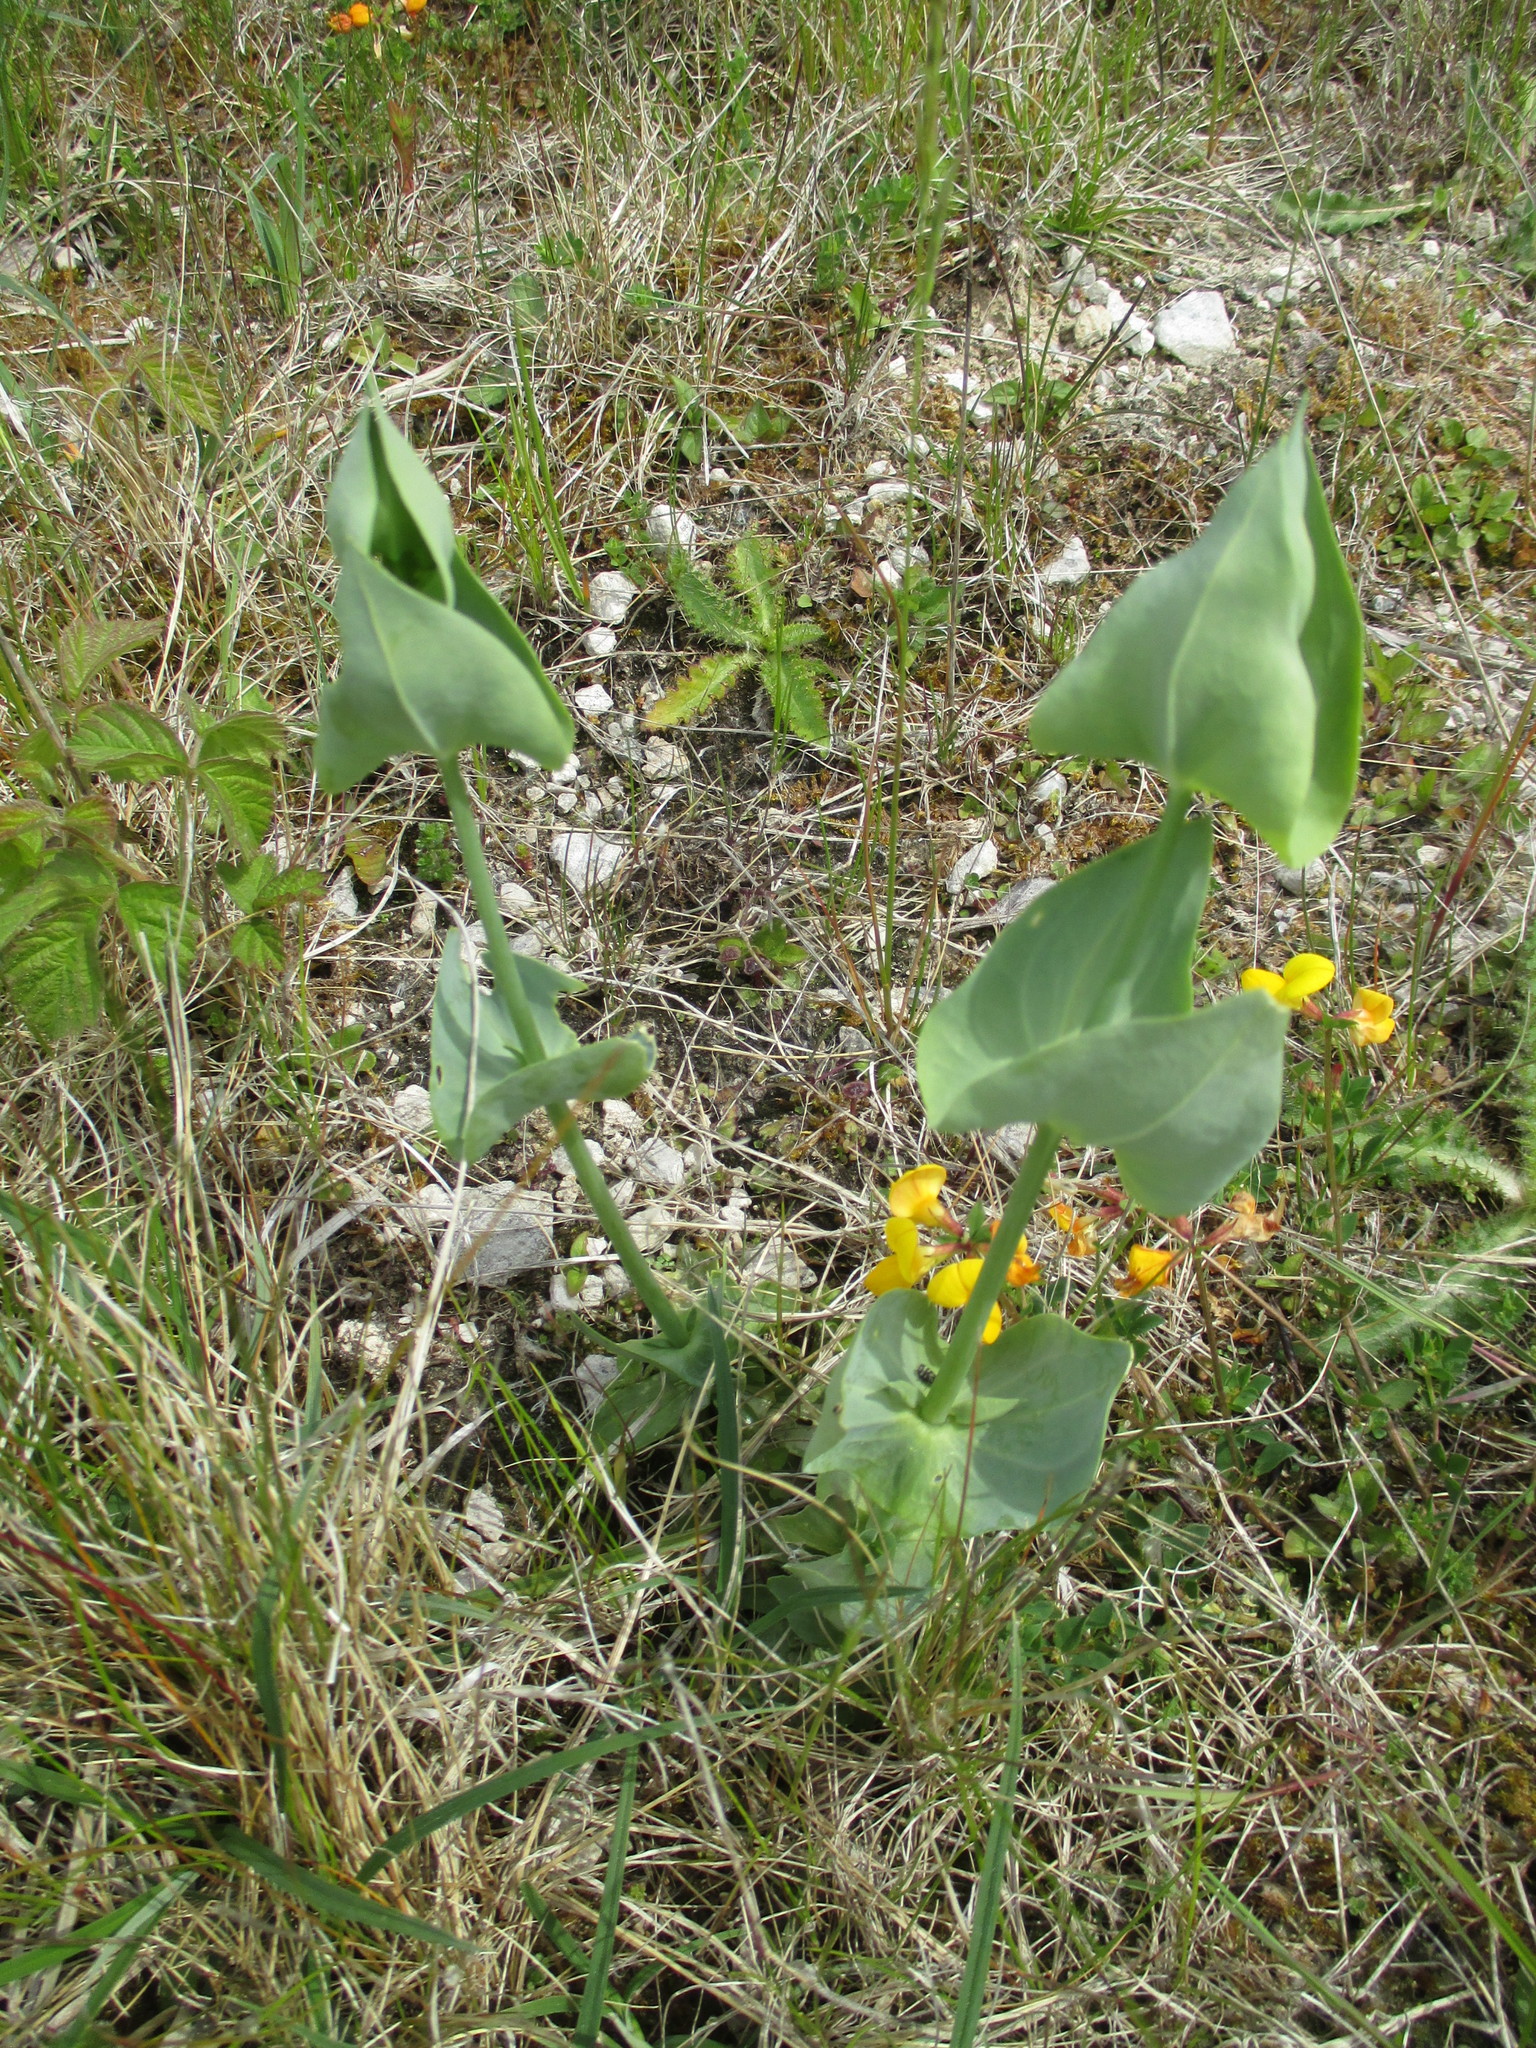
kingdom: Plantae
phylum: Tracheophyta
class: Magnoliopsida
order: Gentianales
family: Gentianaceae
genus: Blackstonia
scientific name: Blackstonia perfoliata
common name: Yellow-wort
